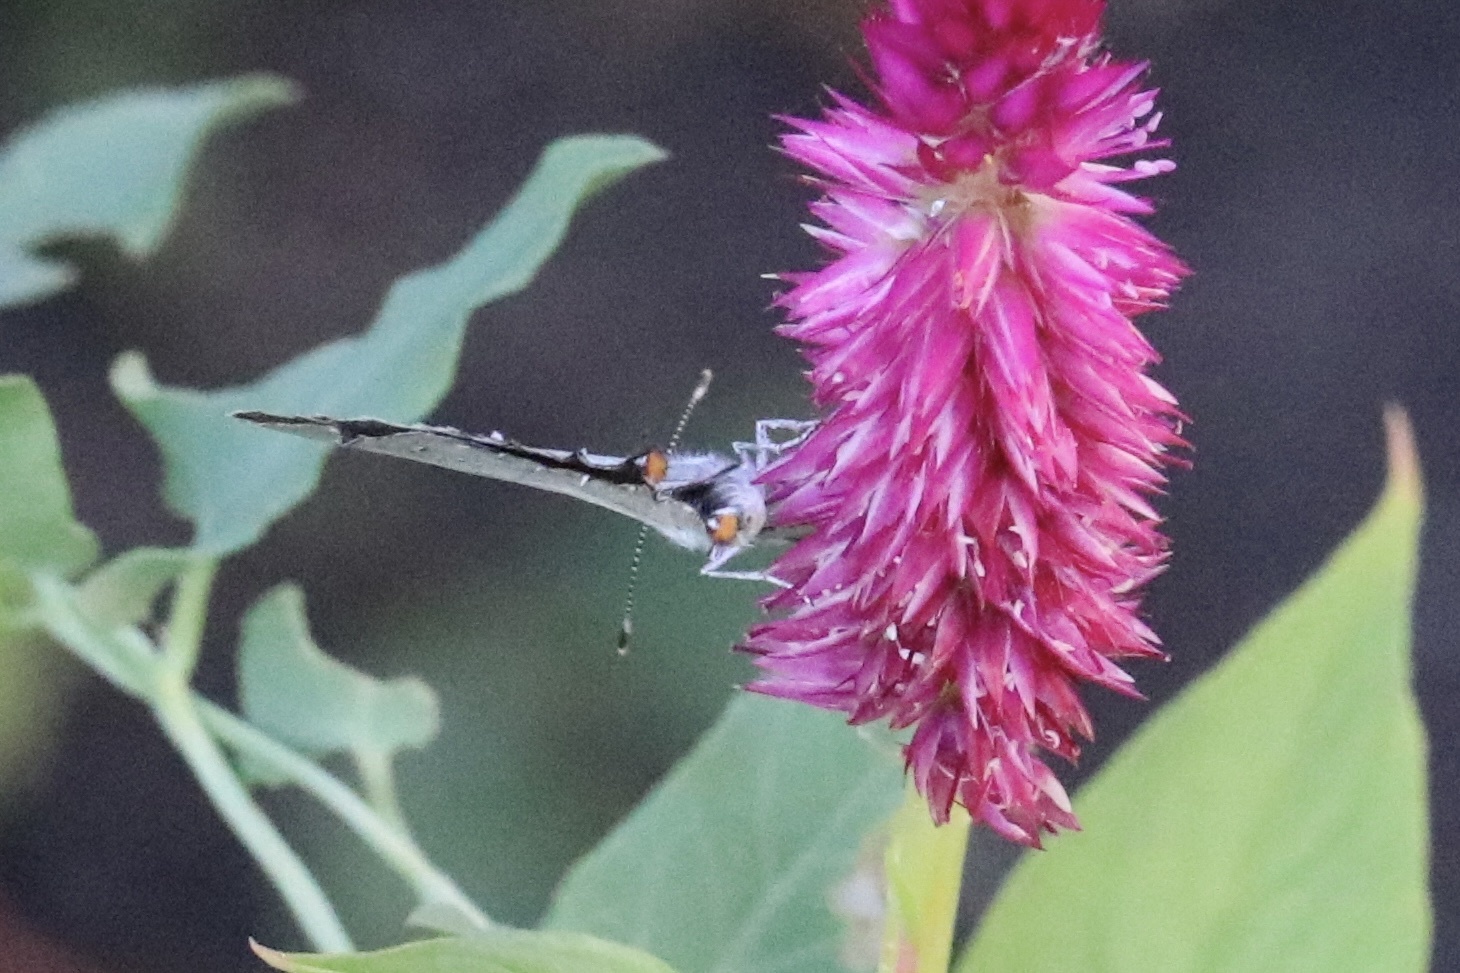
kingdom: Animalia
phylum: Arthropoda
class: Insecta
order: Lepidoptera
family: Lycaenidae
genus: Strymon
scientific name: Strymon melinus
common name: Gray hairstreak
